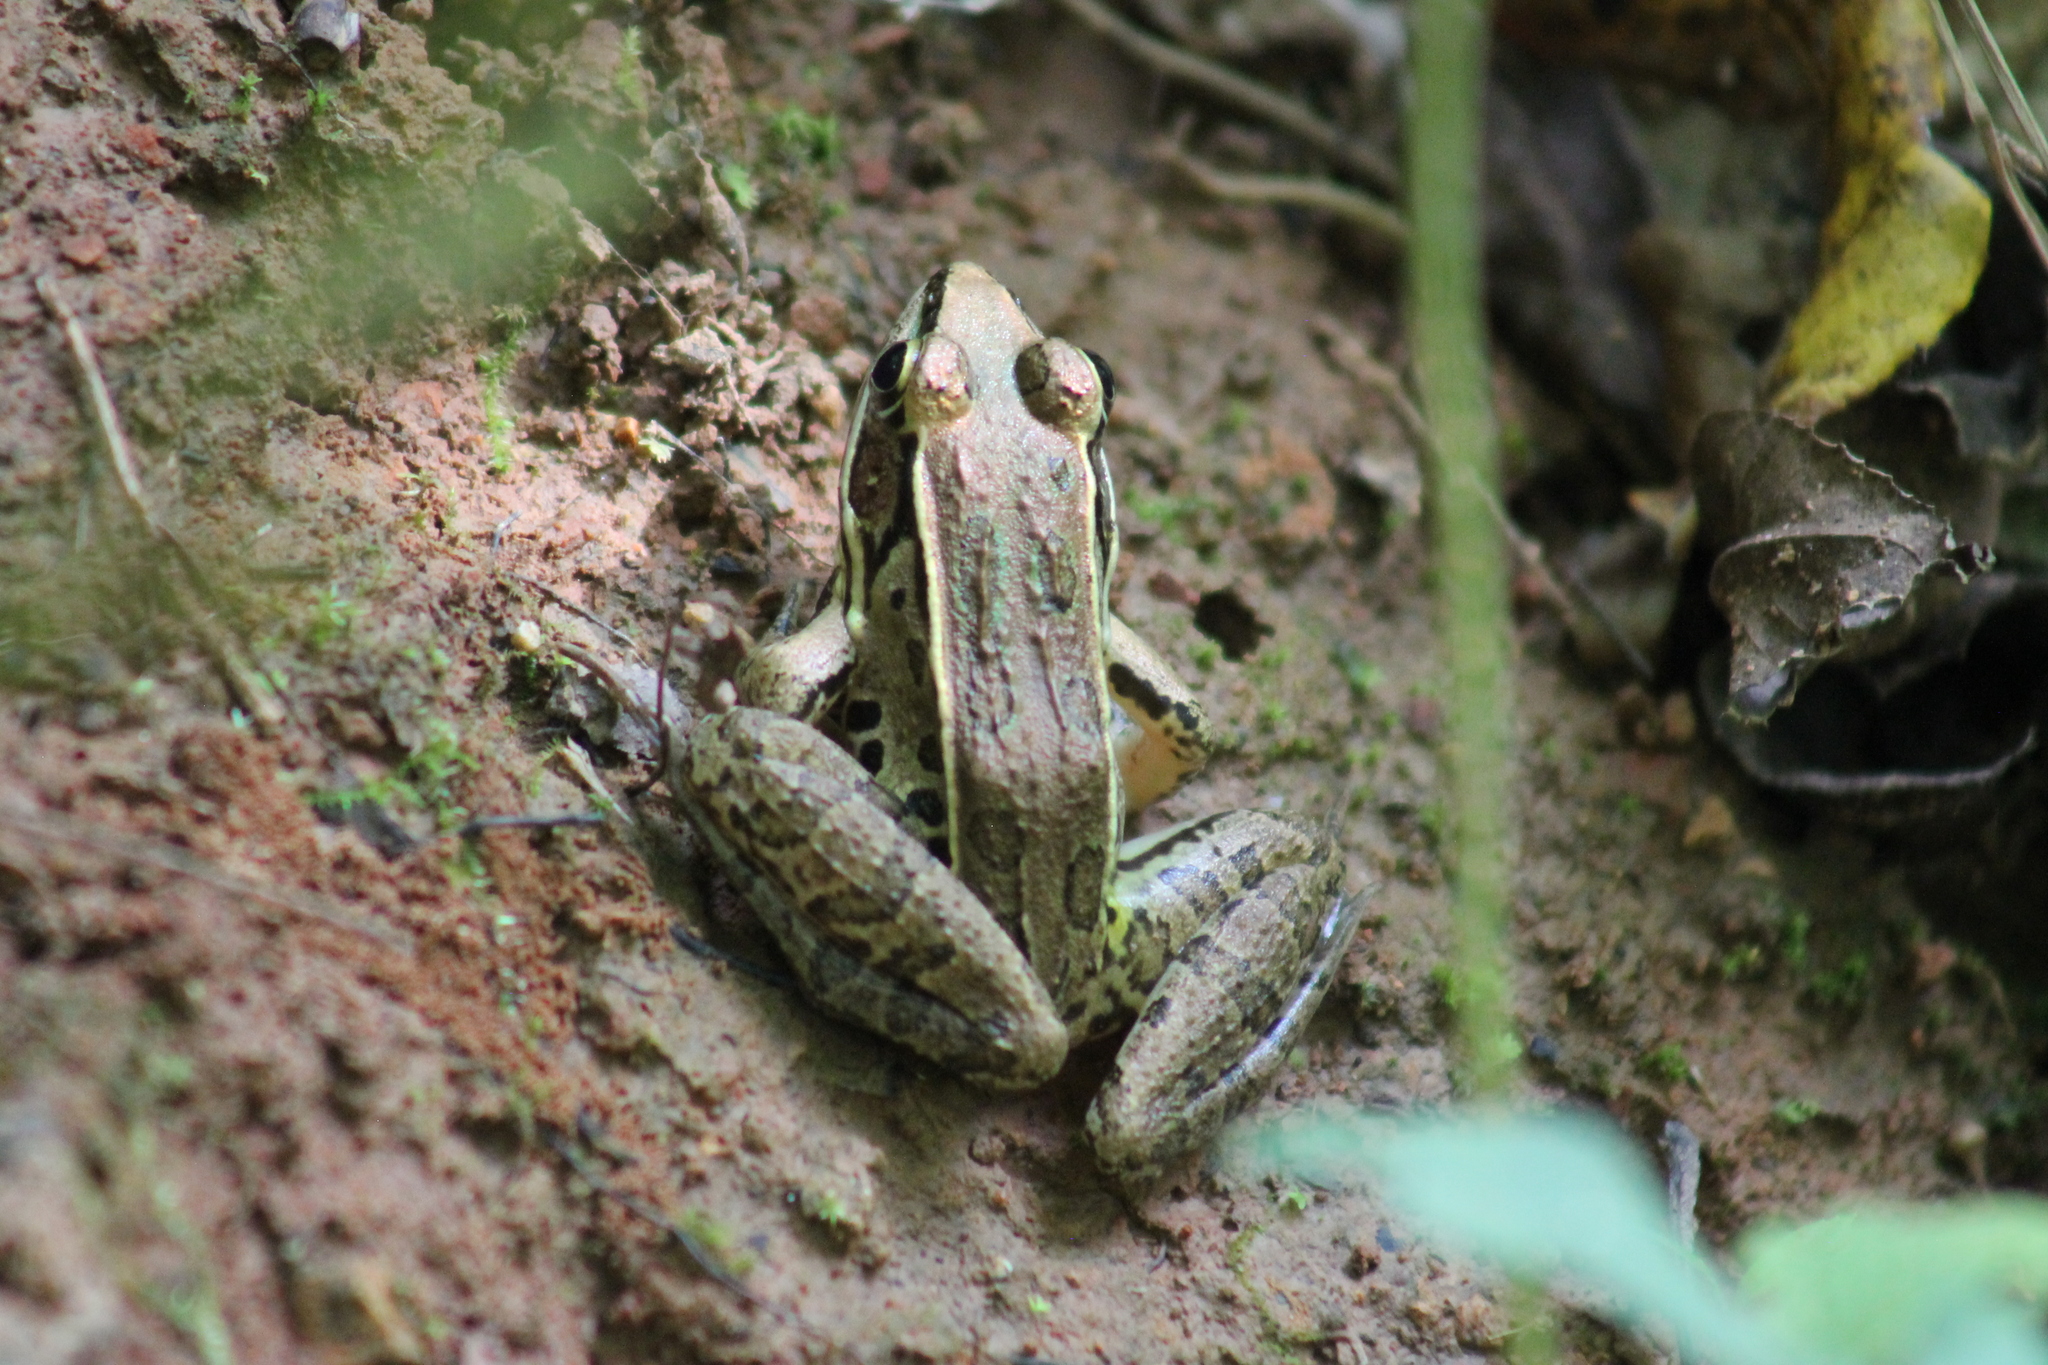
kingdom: Animalia
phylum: Chordata
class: Amphibia
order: Anura
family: Ranidae
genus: Lithobates
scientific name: Lithobates sphenocephalus
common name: Southern leopard frog
